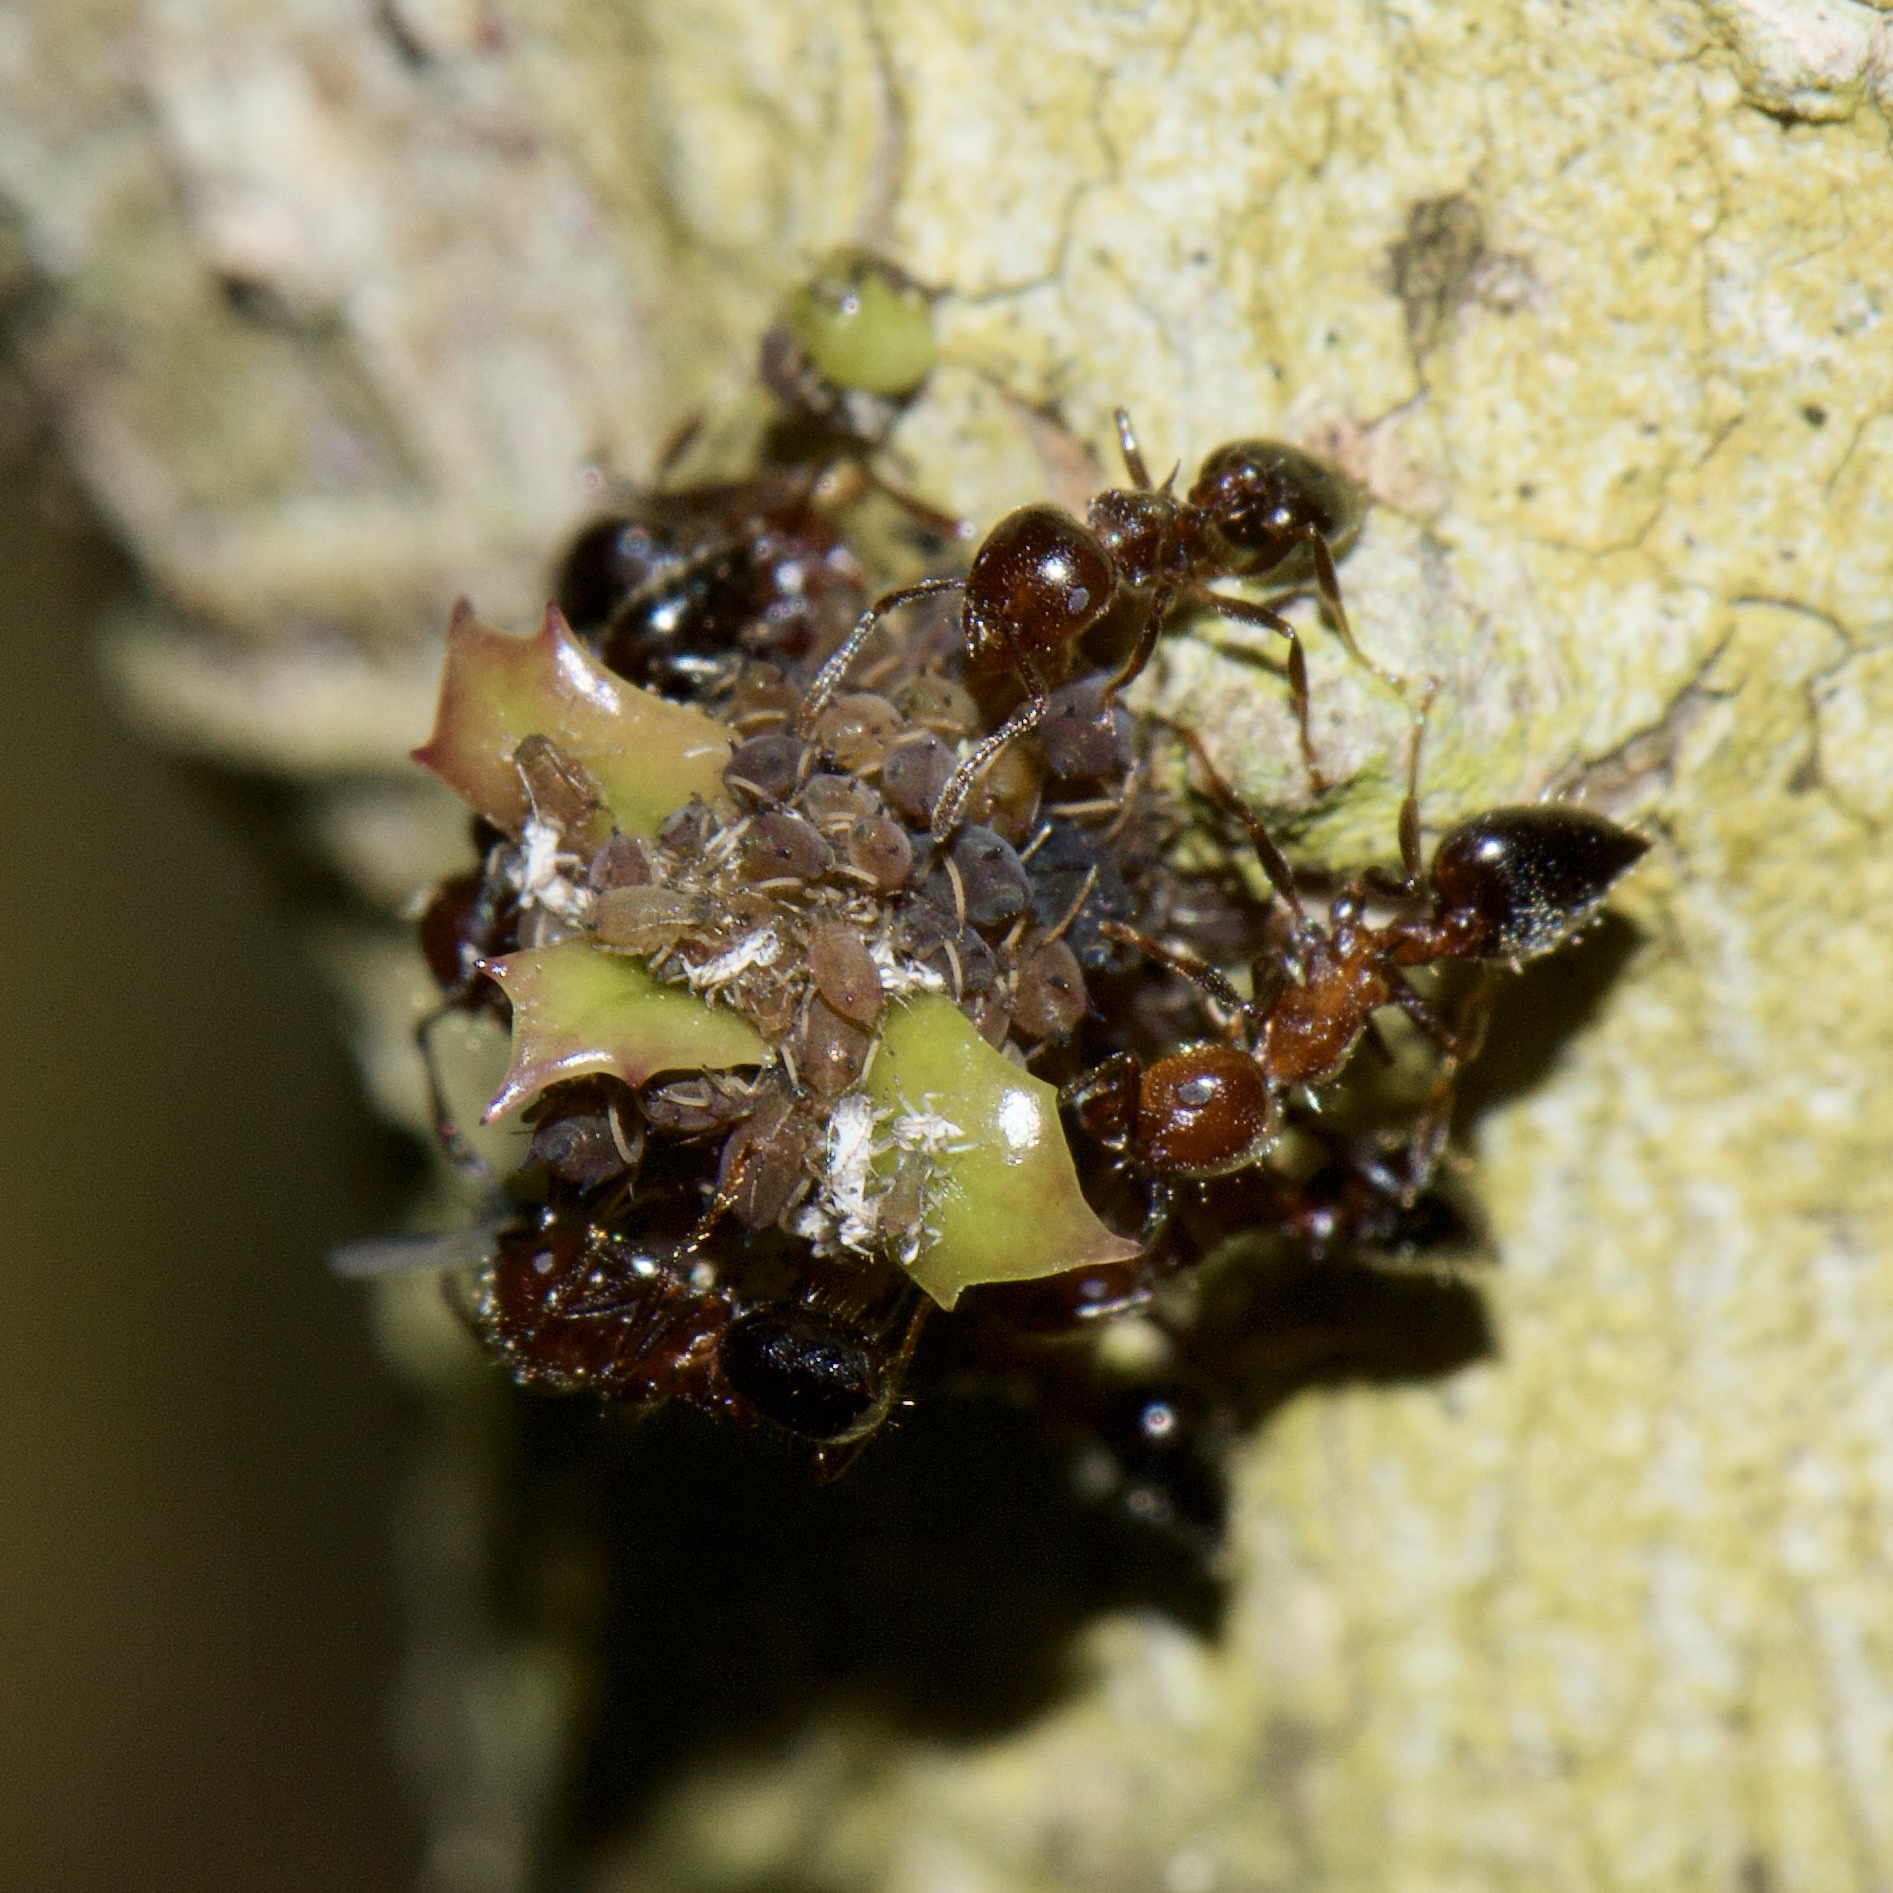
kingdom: Animalia
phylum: Arthropoda
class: Insecta
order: Hymenoptera
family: Formicidae
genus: Crematogaster
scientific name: Crematogaster pilosa
